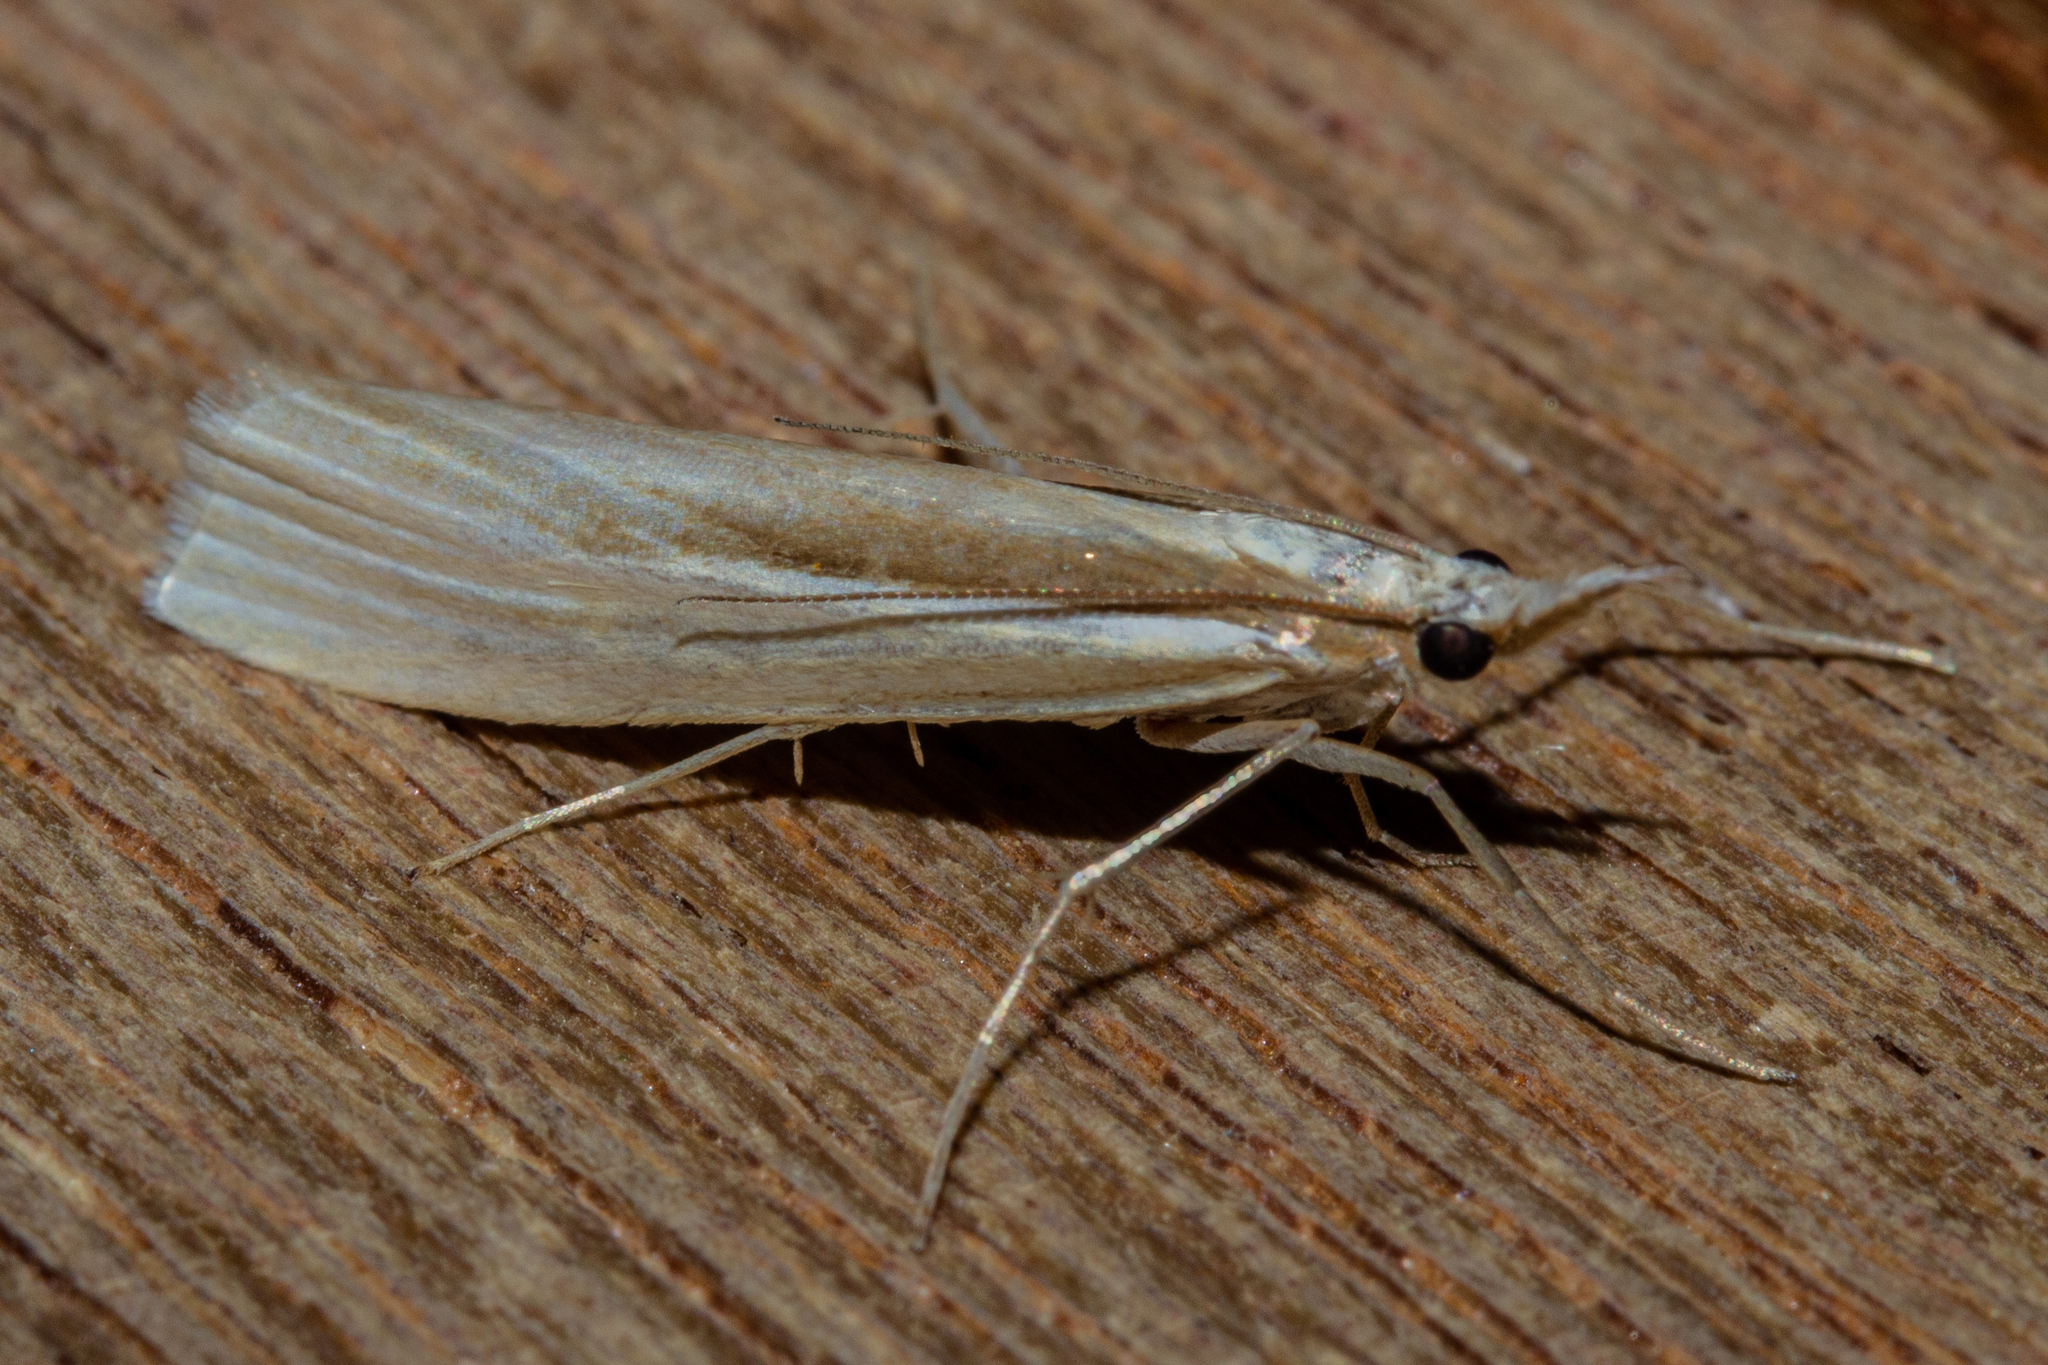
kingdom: Animalia
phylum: Arthropoda
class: Insecta
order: Lepidoptera
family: Crambidae
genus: Orocrambus
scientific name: Orocrambus ramosellus
